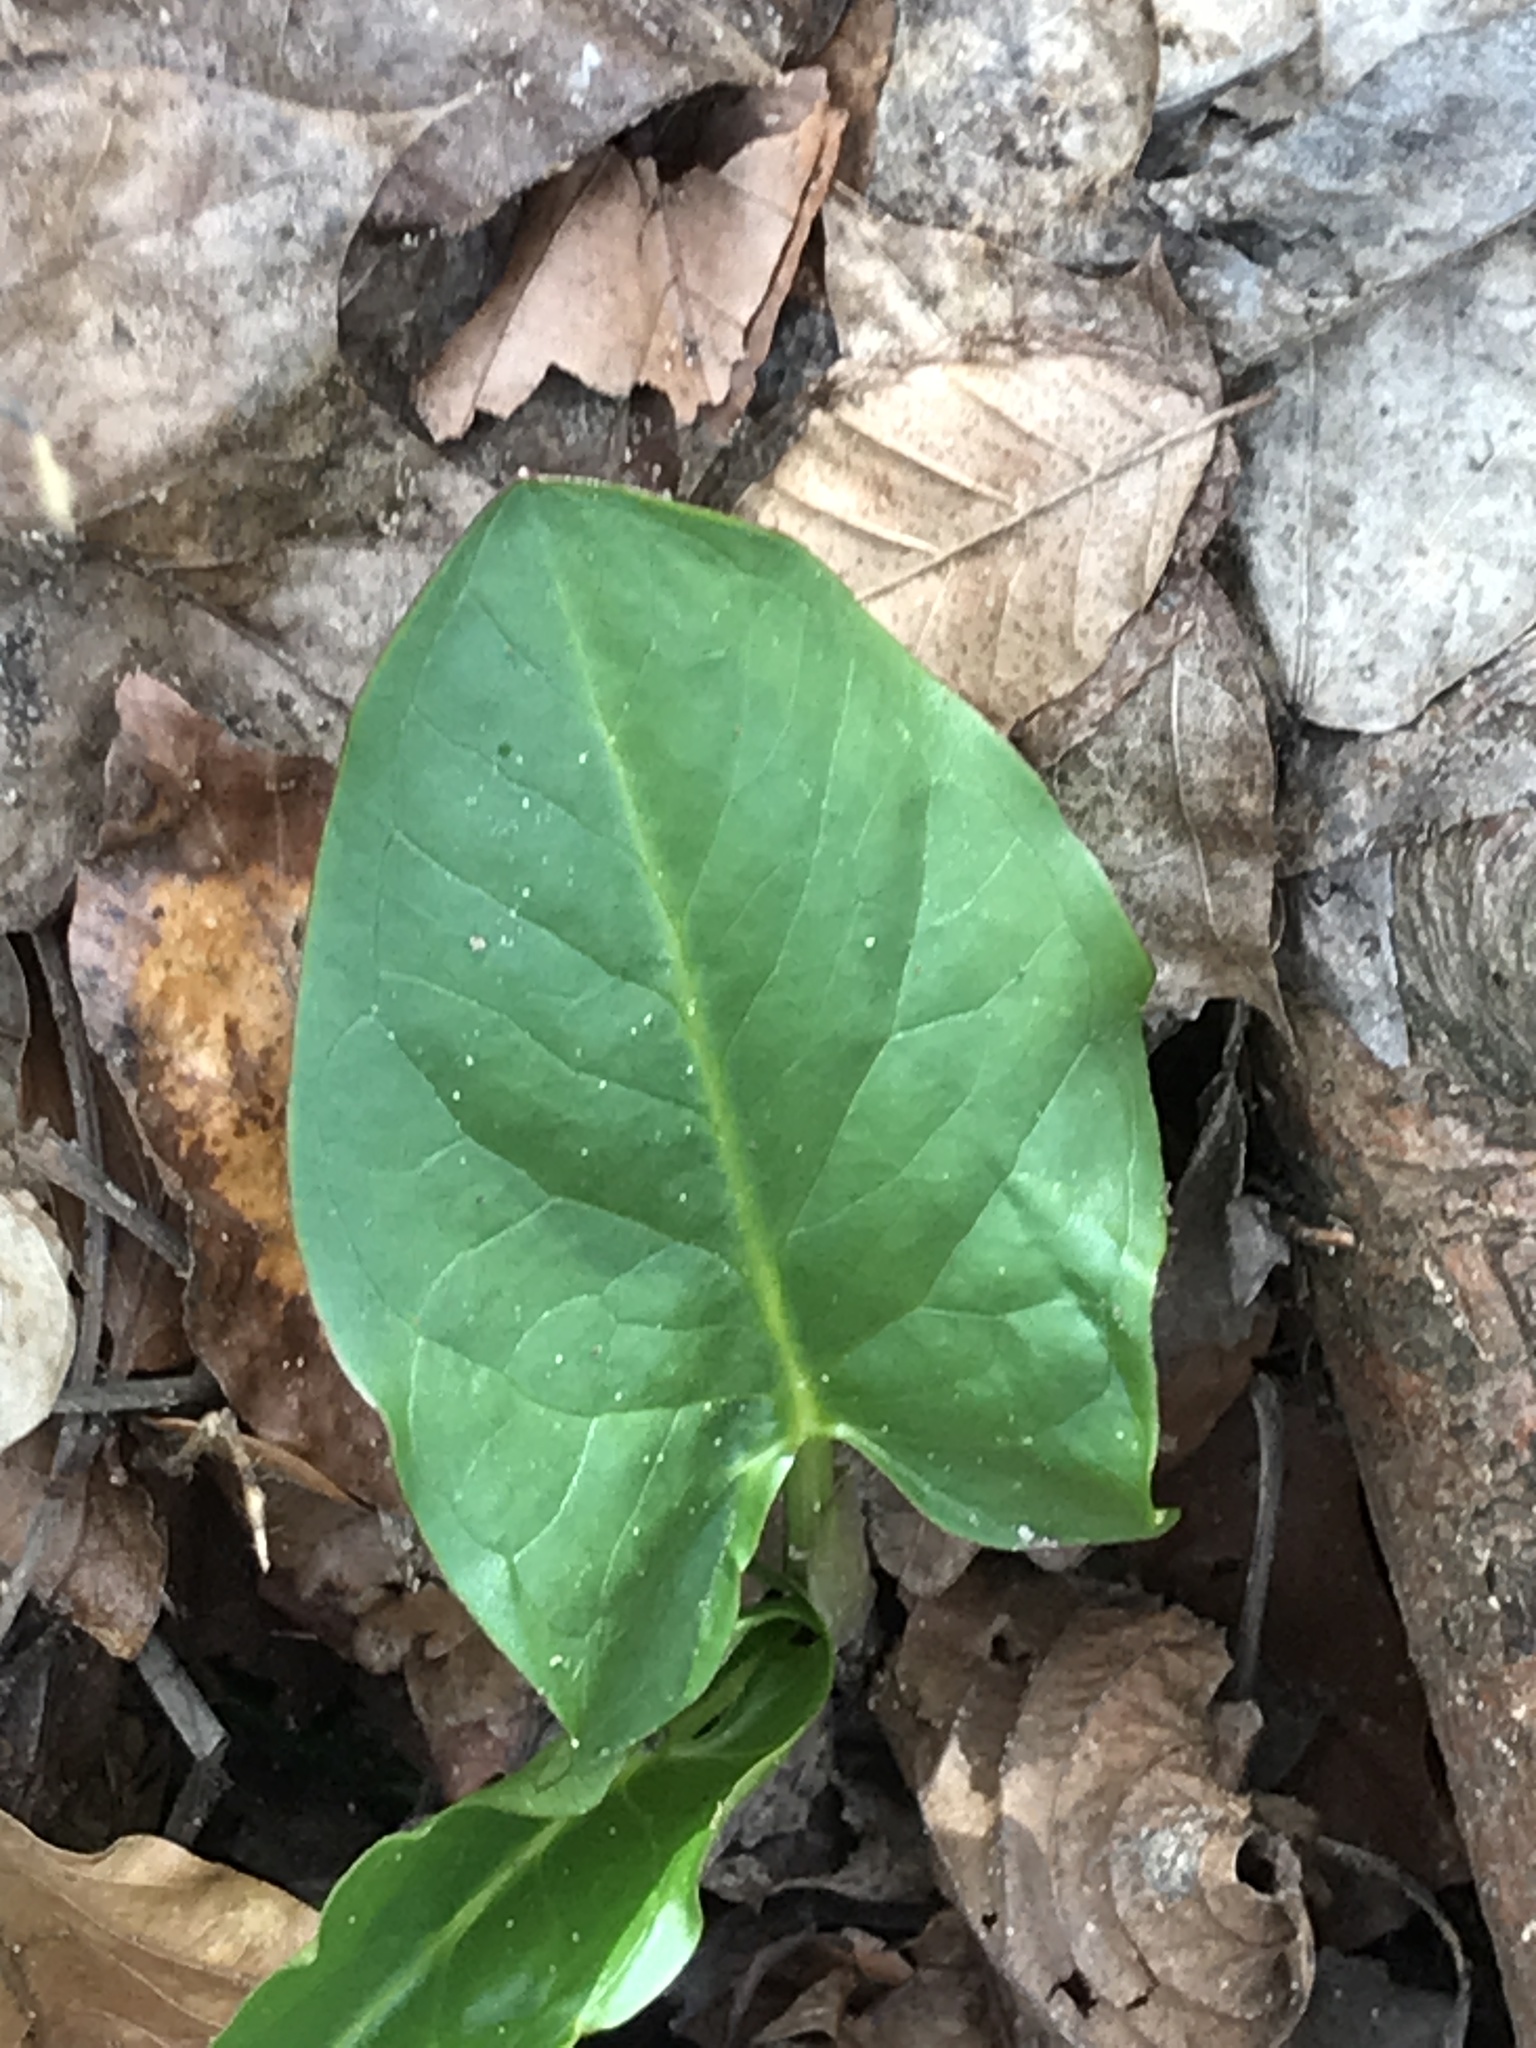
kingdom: Plantae
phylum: Tracheophyta
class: Liliopsida
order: Alismatales
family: Araceae
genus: Arum
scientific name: Arum maculatum
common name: Lords-and-ladies
